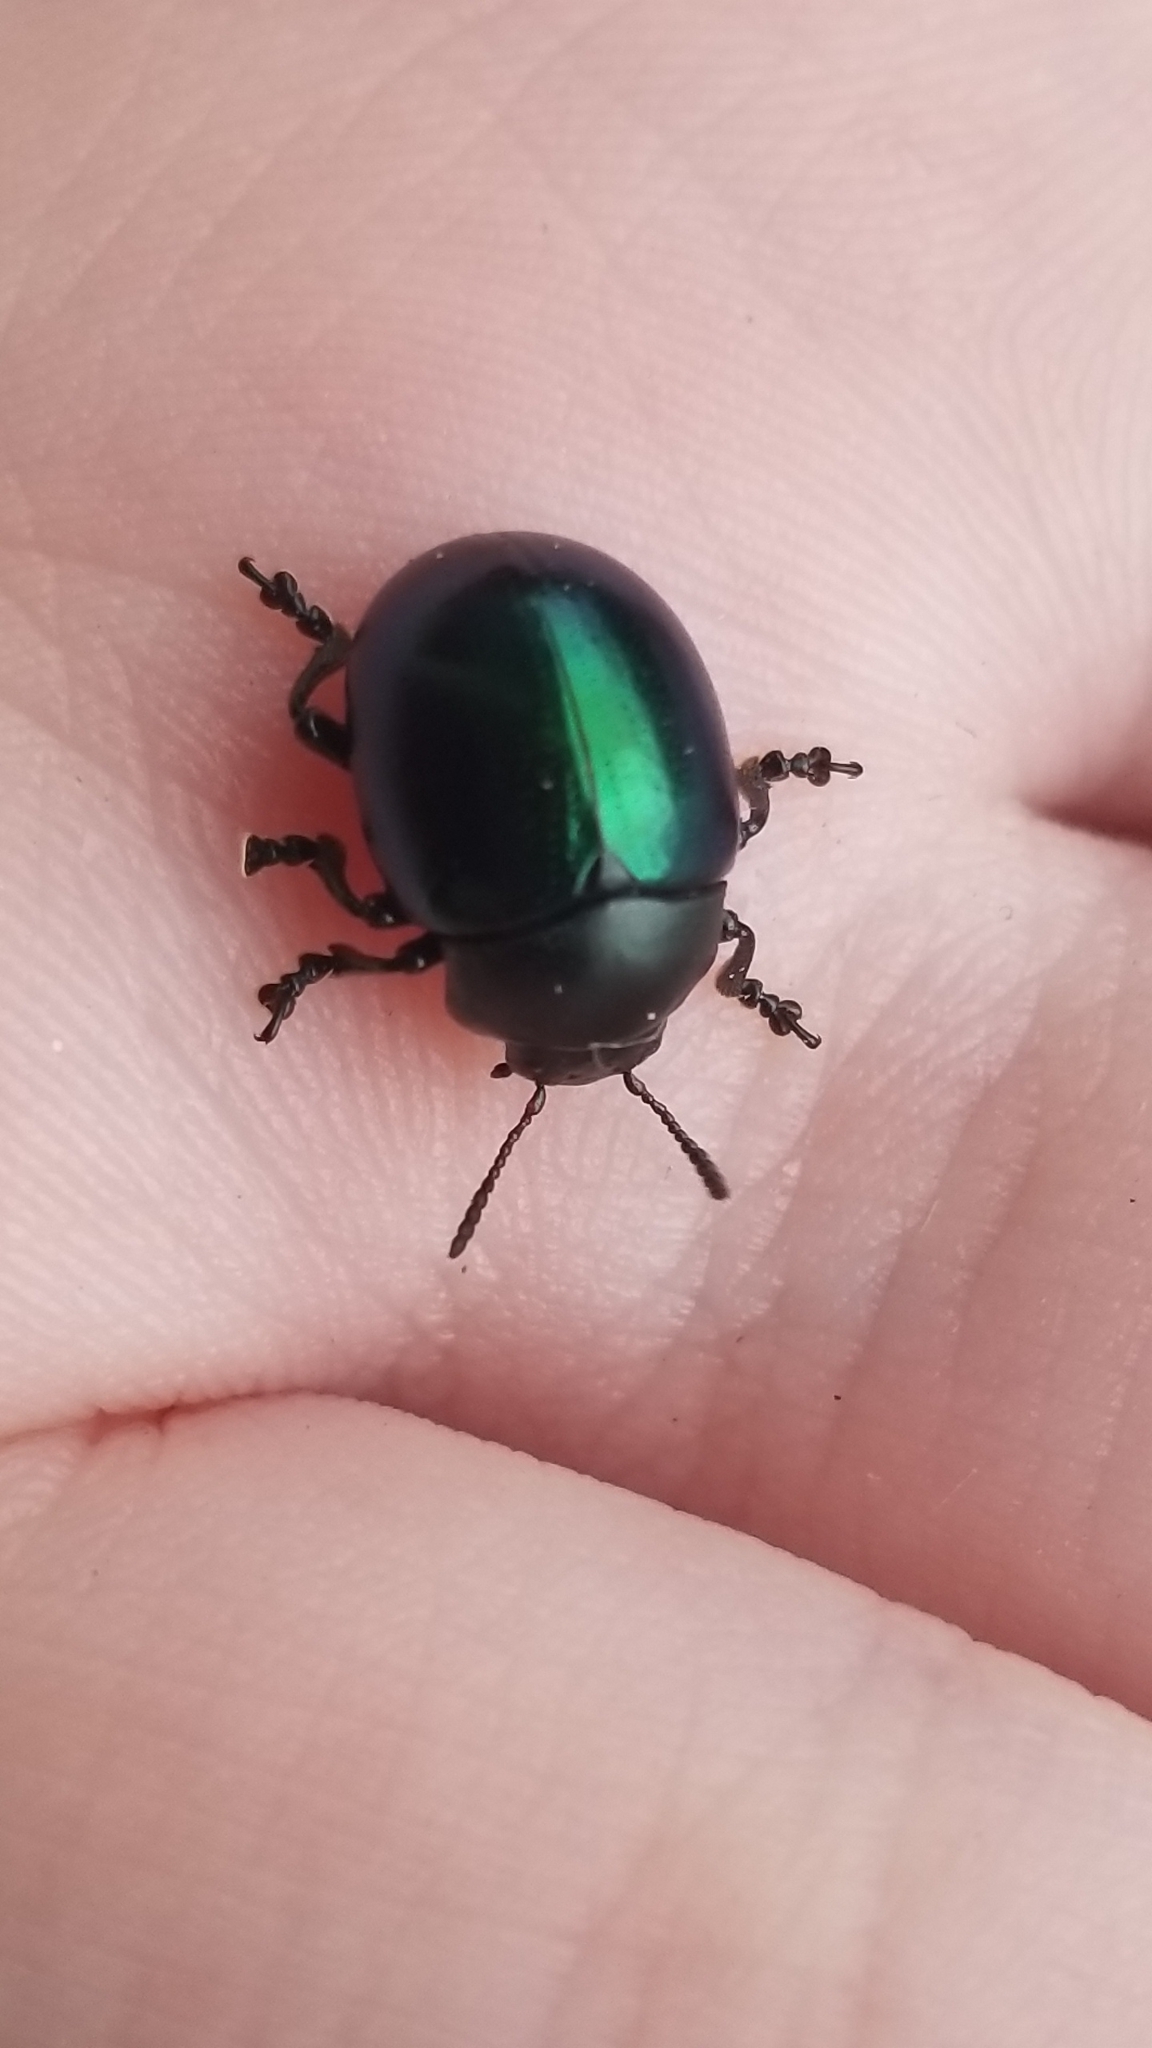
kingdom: Animalia
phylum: Arthropoda
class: Insecta
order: Coleoptera
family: Chrysomelidae
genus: Leptinotarsa
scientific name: Leptinotarsa haldemani
